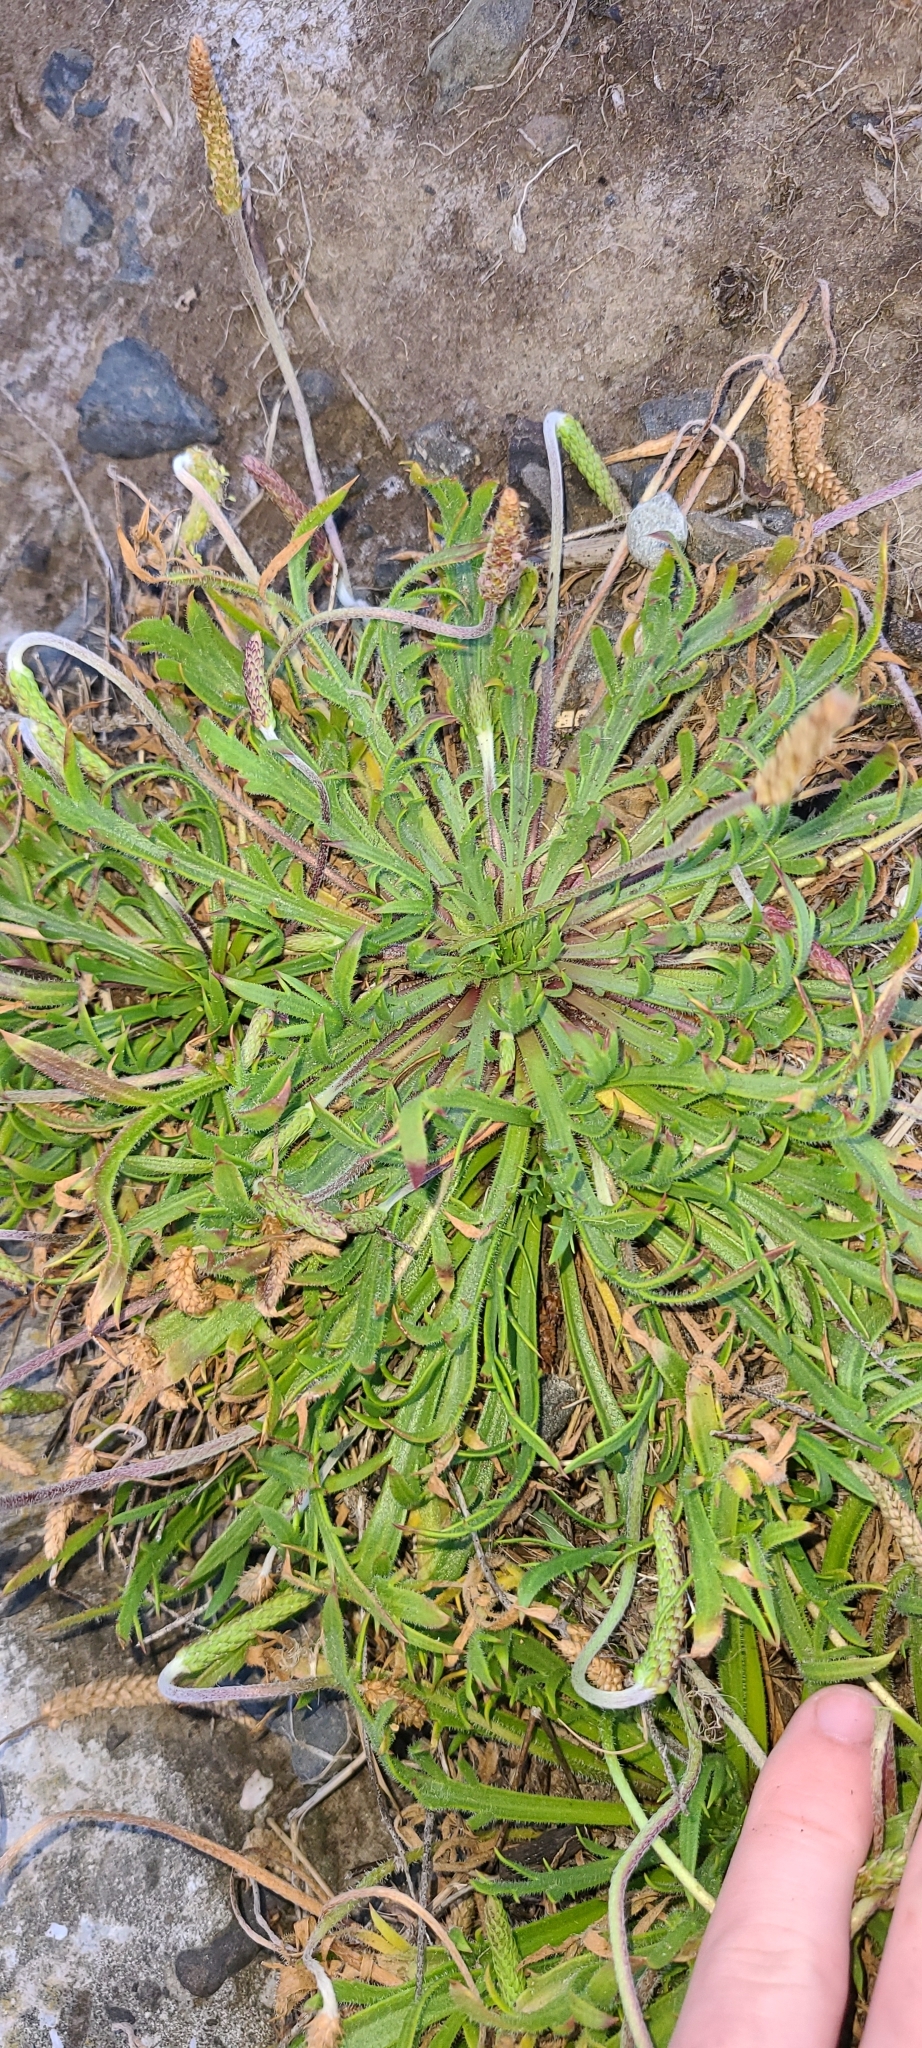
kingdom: Plantae
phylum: Tracheophyta
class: Magnoliopsida
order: Lamiales
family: Plantaginaceae
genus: Plantago
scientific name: Plantago coronopus
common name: Buck's-horn plantain
